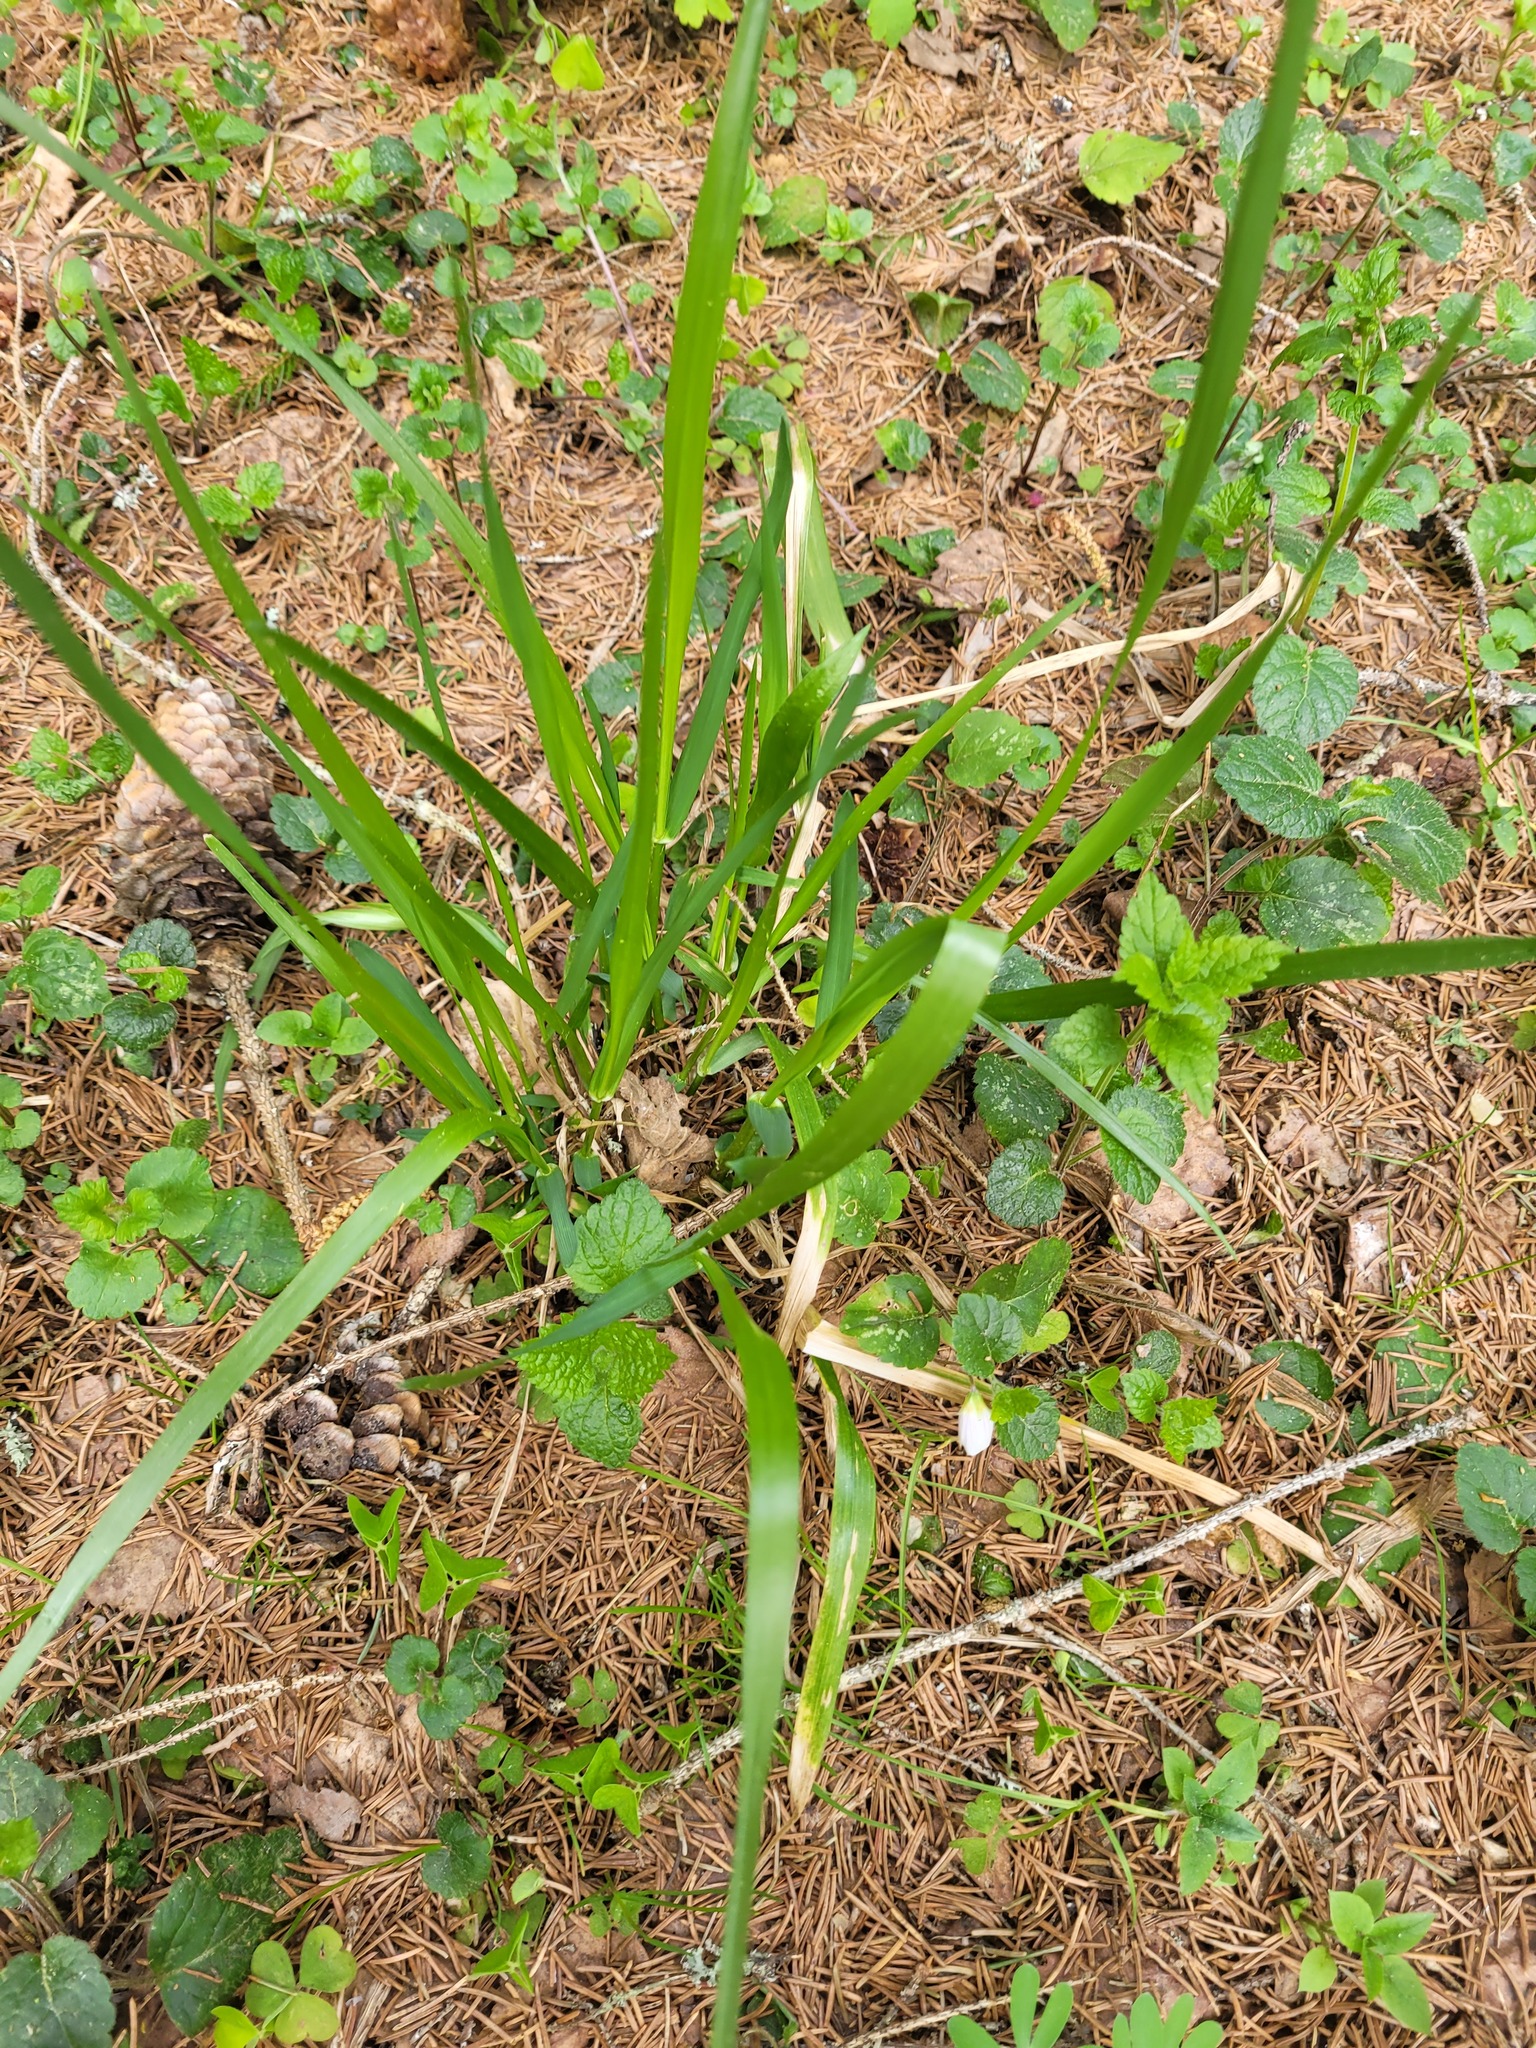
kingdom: Plantae
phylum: Tracheophyta
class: Liliopsida
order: Poales
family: Poaceae
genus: Lolium
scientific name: Lolium giganteum
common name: Giant fescue
